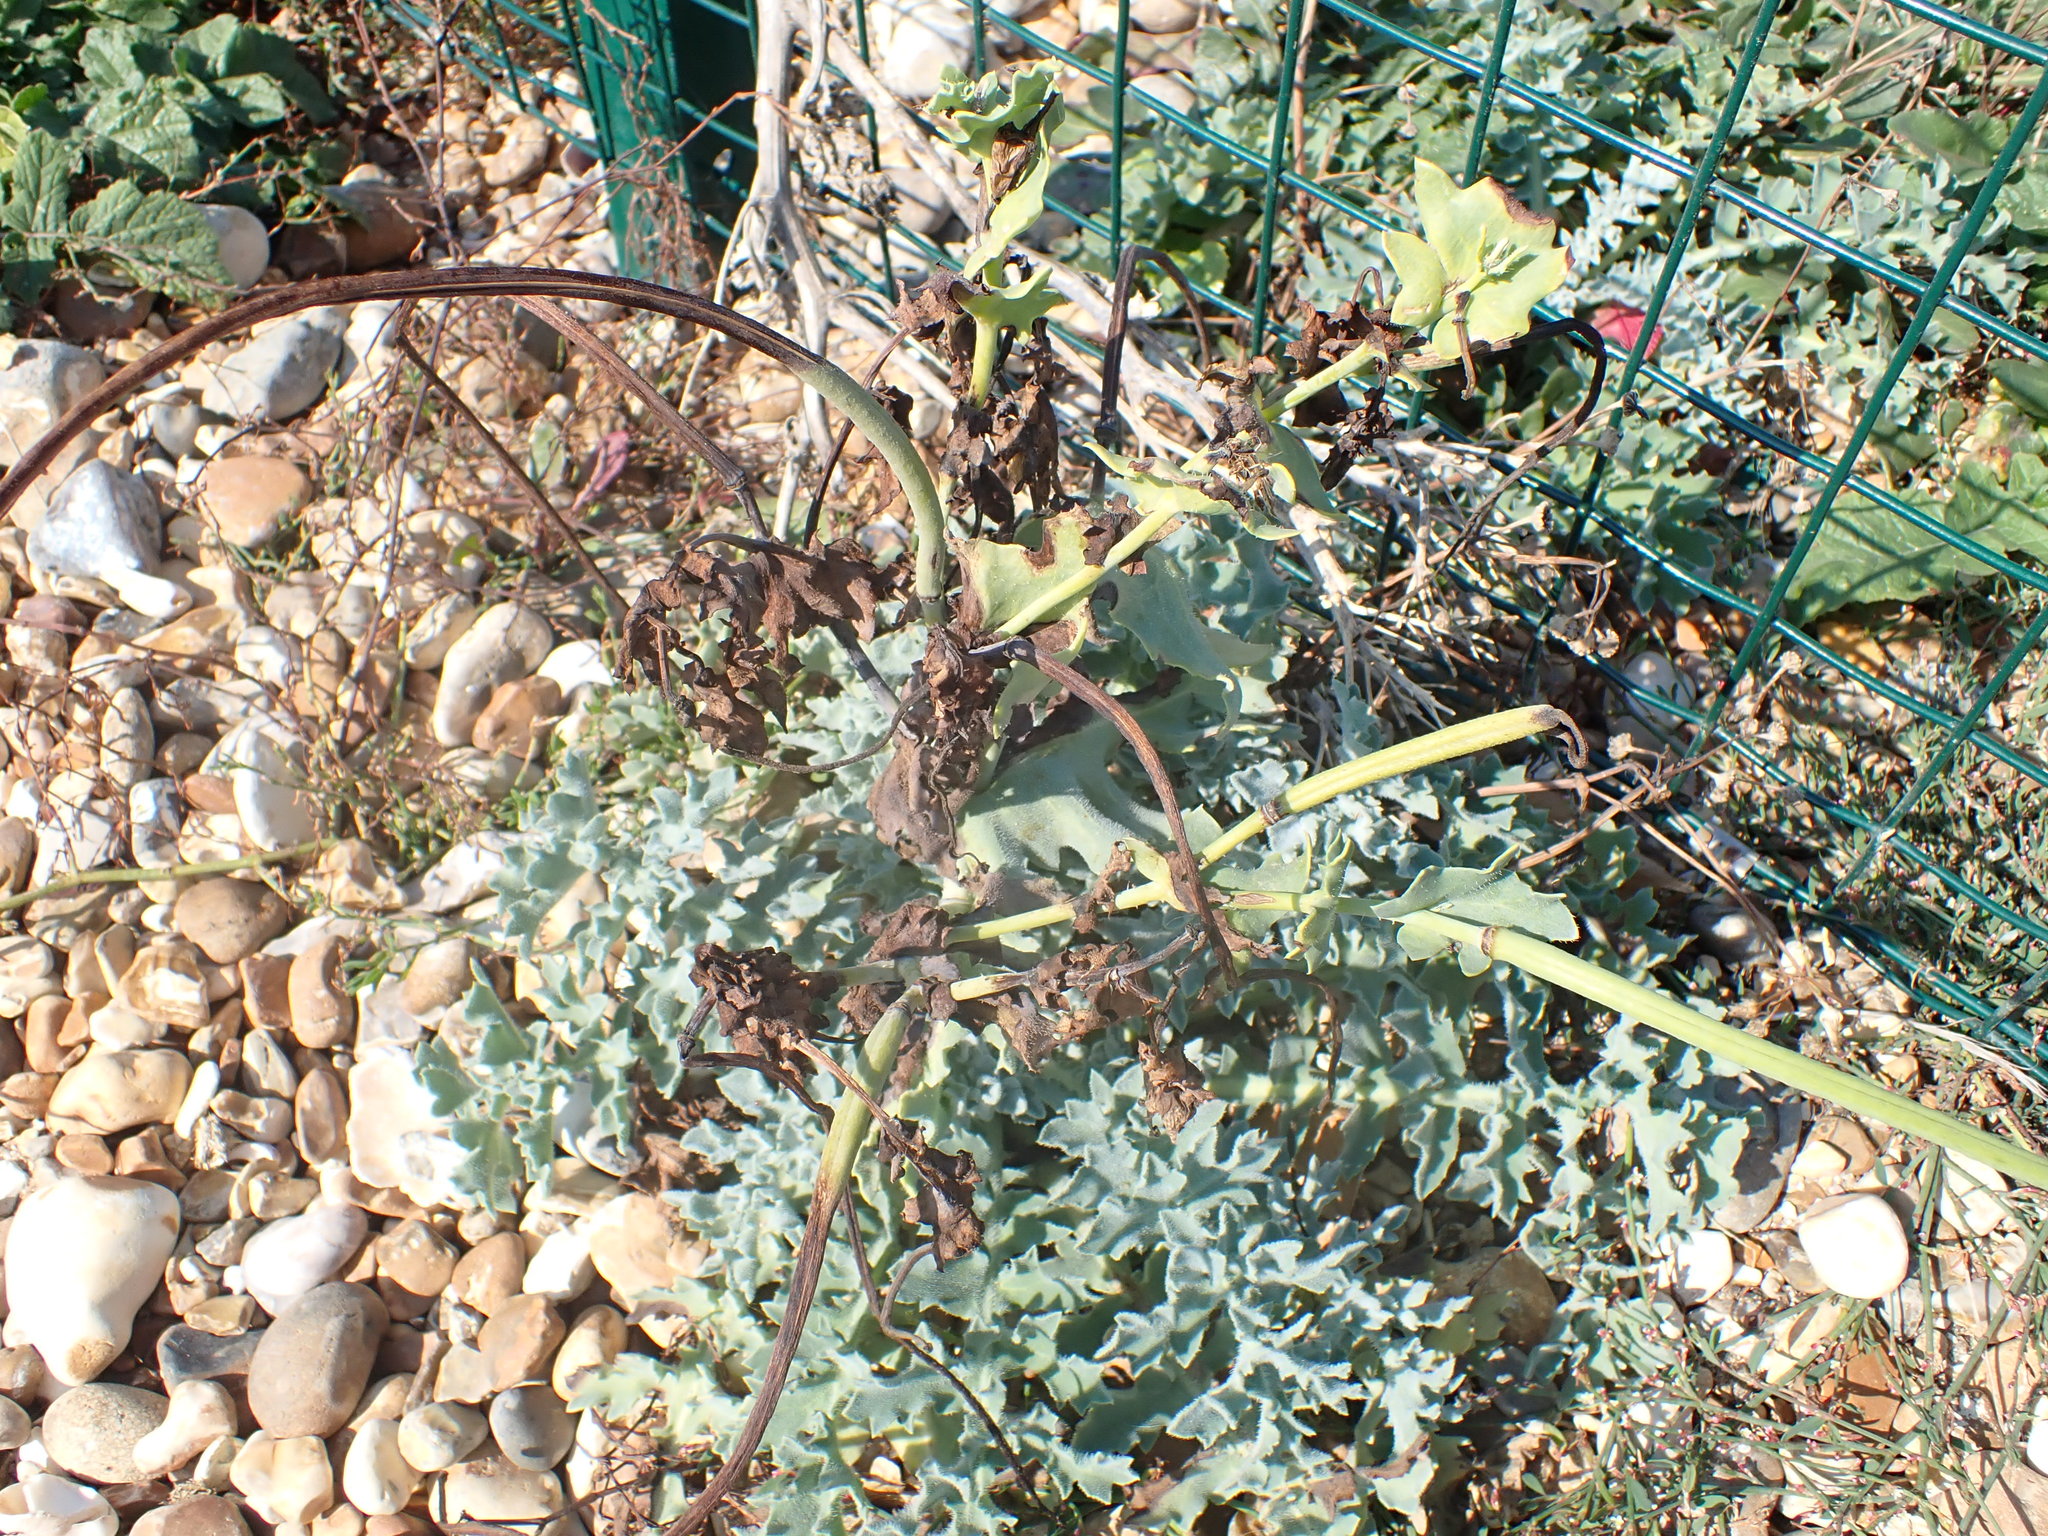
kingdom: Plantae
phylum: Tracheophyta
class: Magnoliopsida
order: Ranunculales
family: Papaveraceae
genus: Glaucium
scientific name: Glaucium flavum
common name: Yellow horned-poppy
